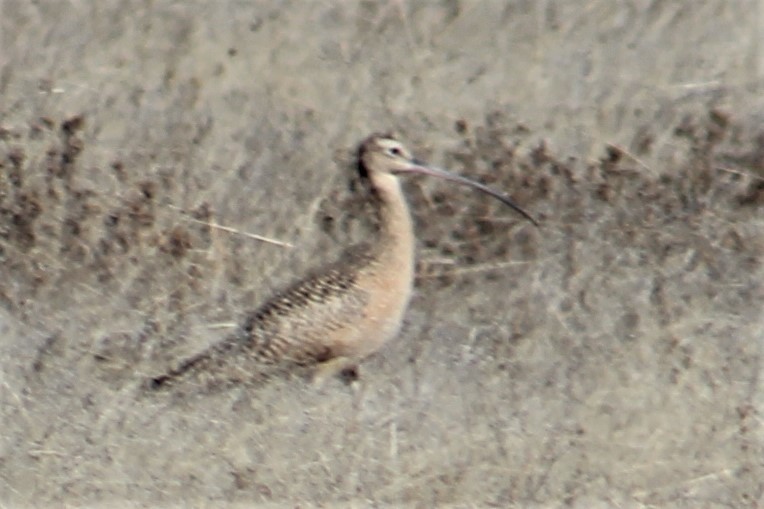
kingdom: Animalia
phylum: Chordata
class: Aves
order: Charadriiformes
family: Scolopacidae
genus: Numenius
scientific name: Numenius americanus
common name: Long-billed curlew
